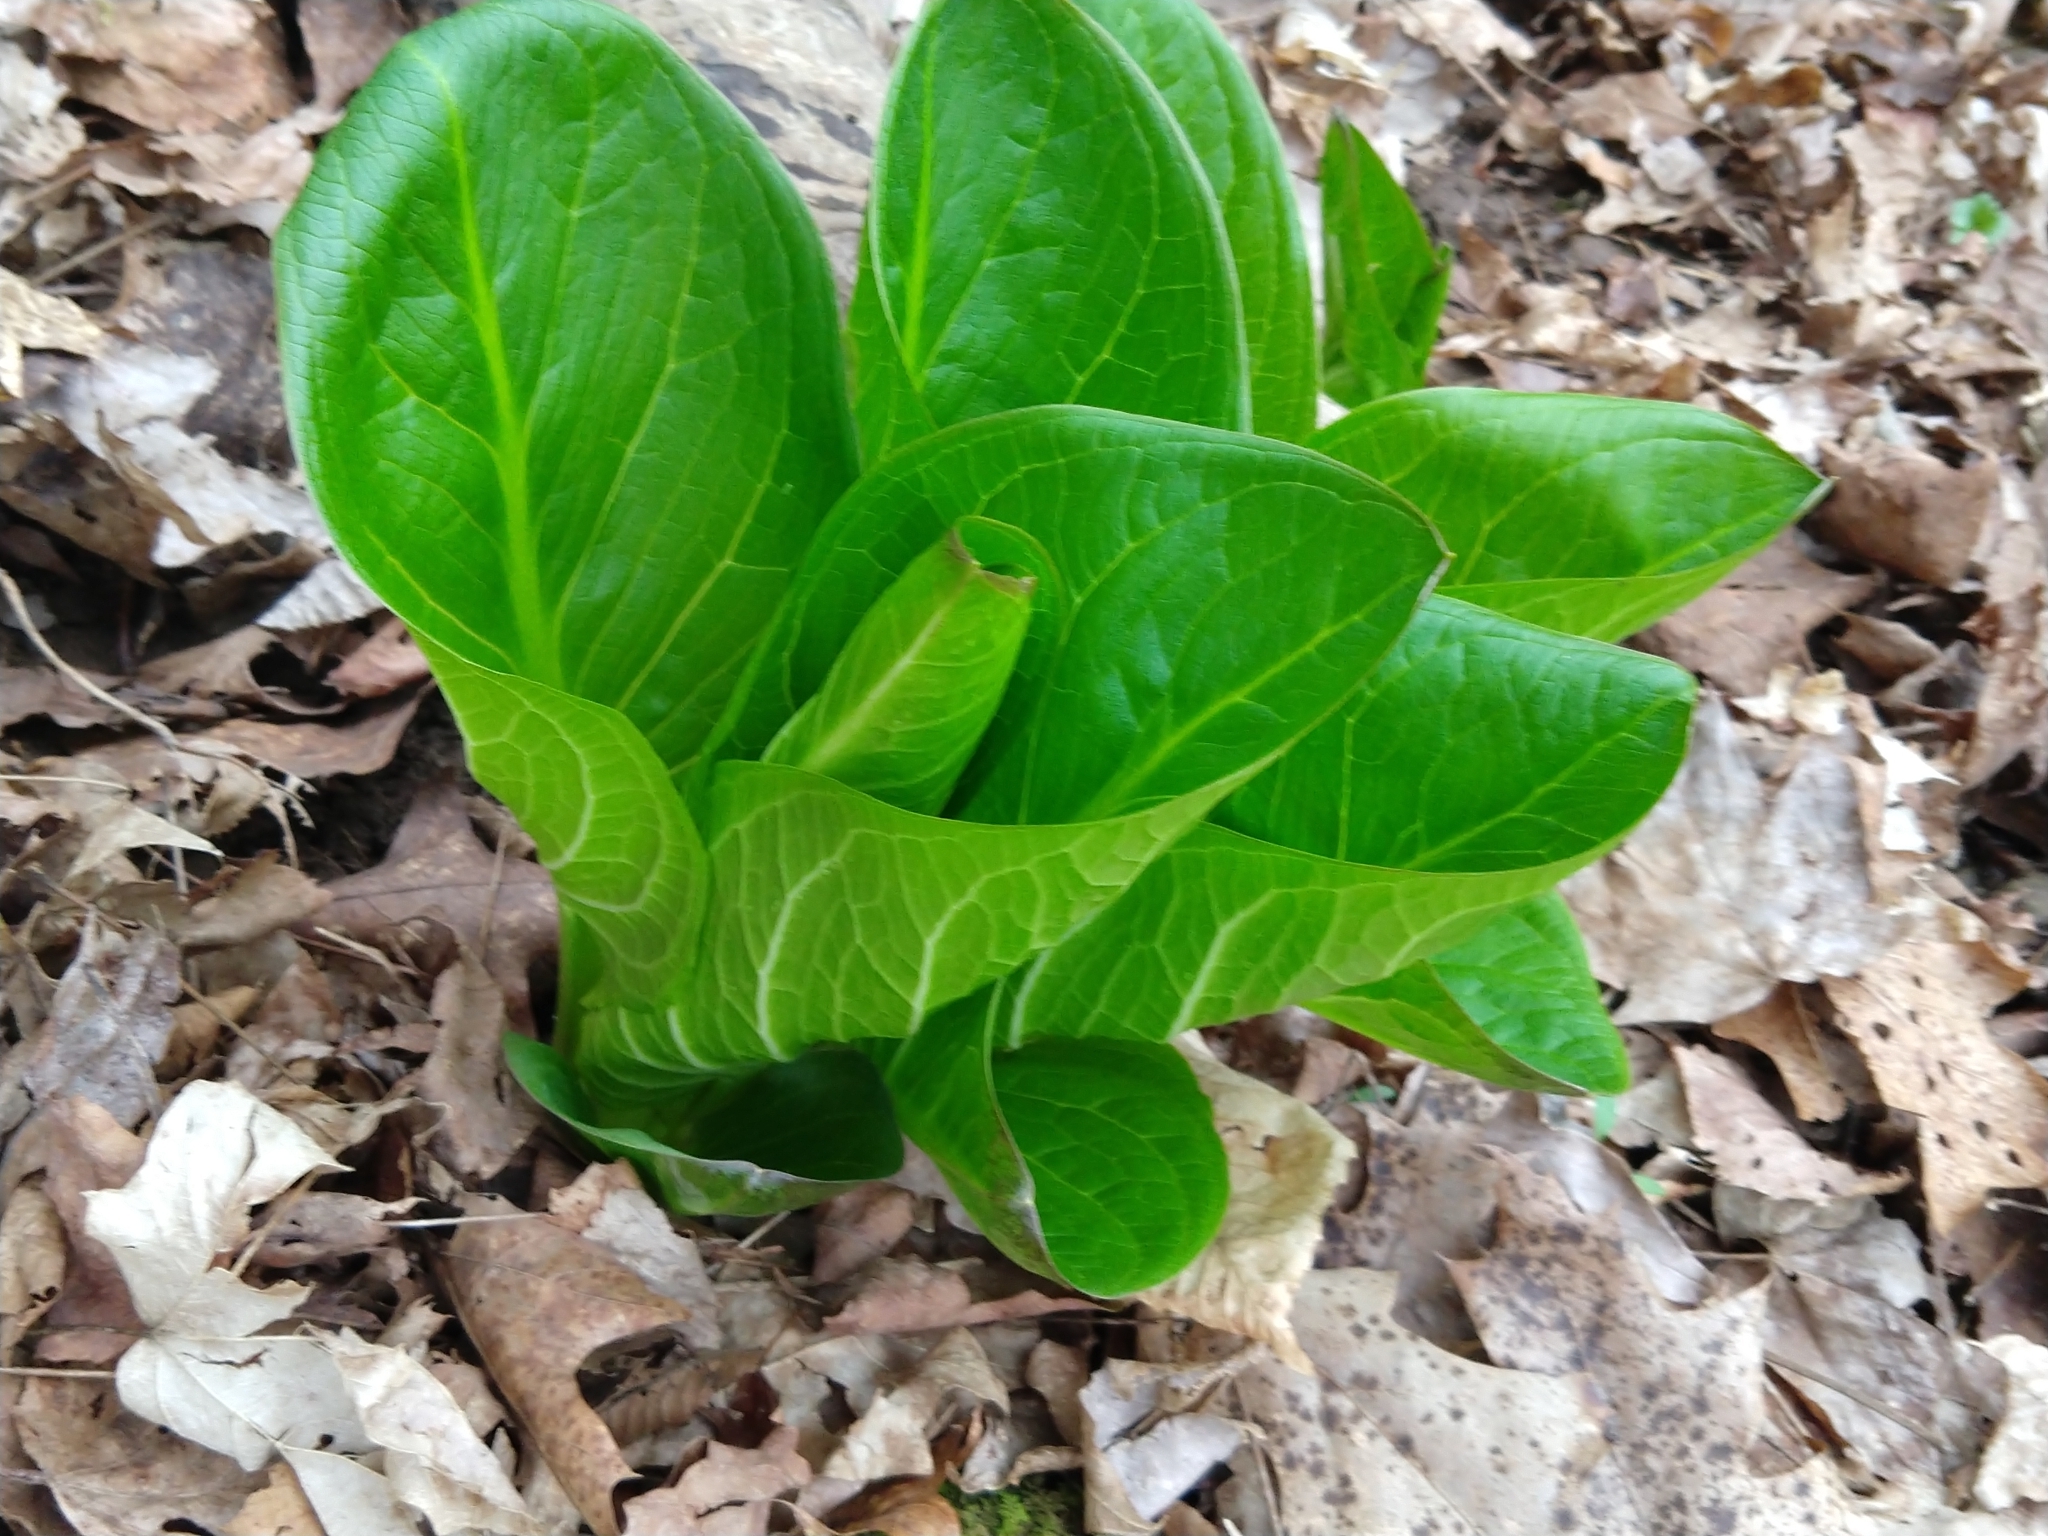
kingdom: Plantae
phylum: Tracheophyta
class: Liliopsida
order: Alismatales
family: Araceae
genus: Symplocarpus
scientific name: Symplocarpus foetidus
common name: Eastern skunk cabbage
